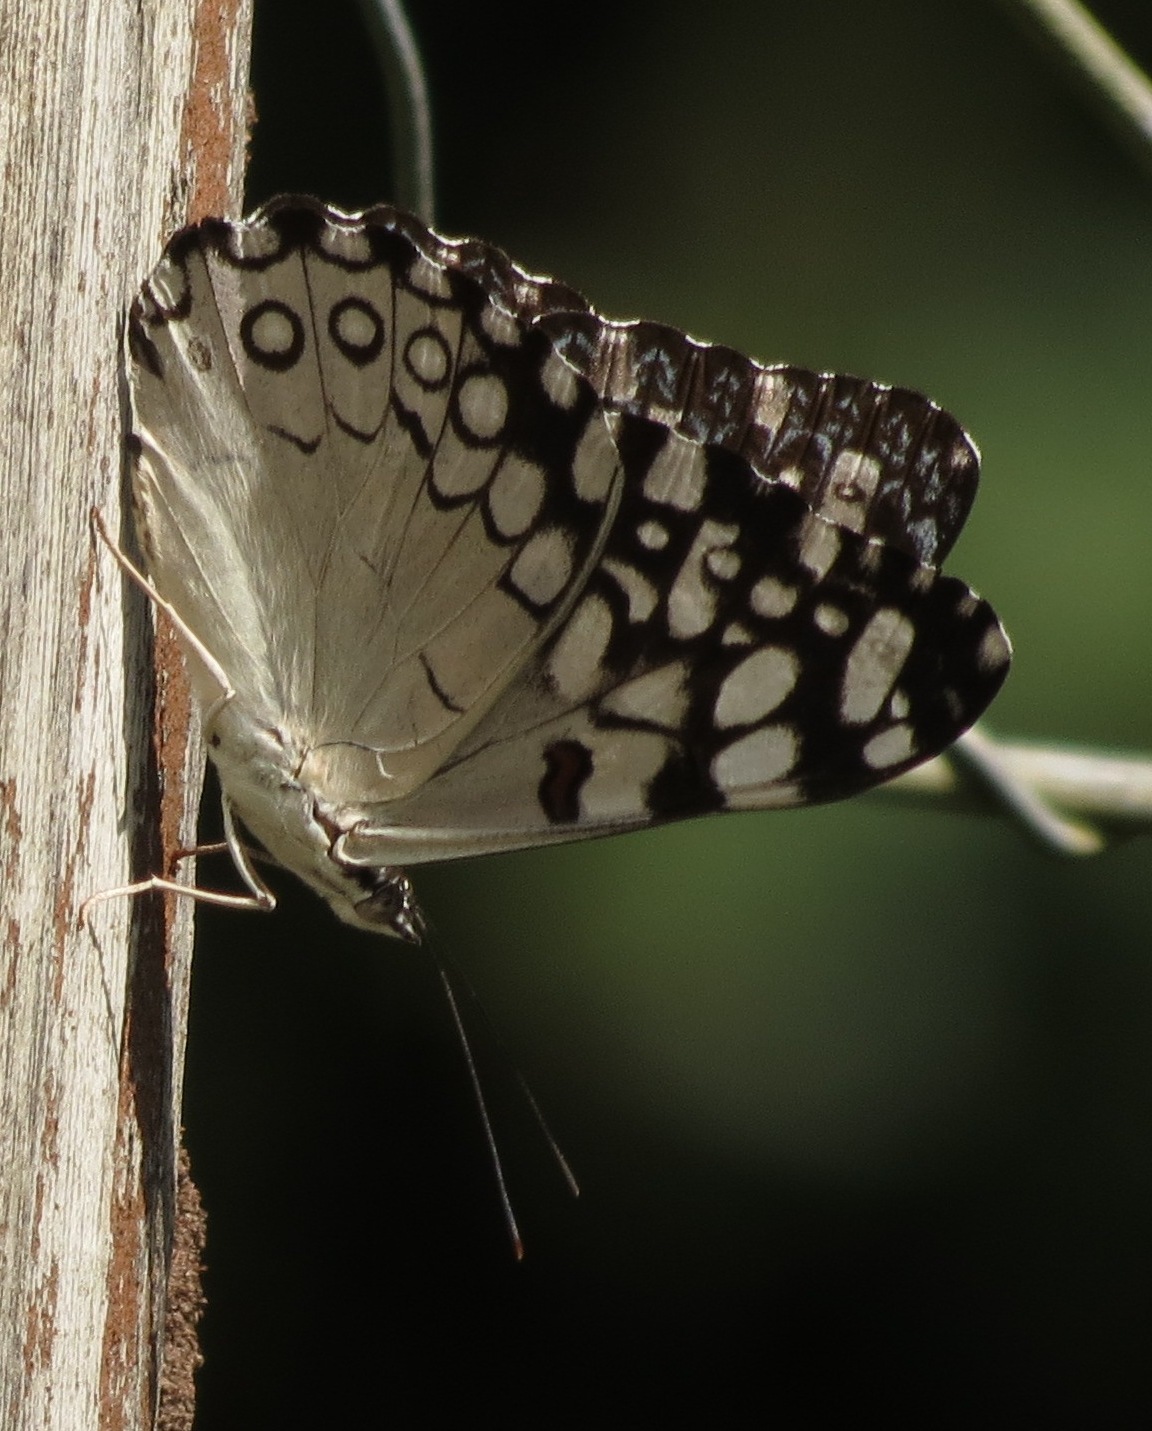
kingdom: Animalia
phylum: Arthropoda
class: Insecta
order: Lepidoptera
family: Nymphalidae
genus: Hamadryas
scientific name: Hamadryas feronia
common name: Variable cracker
